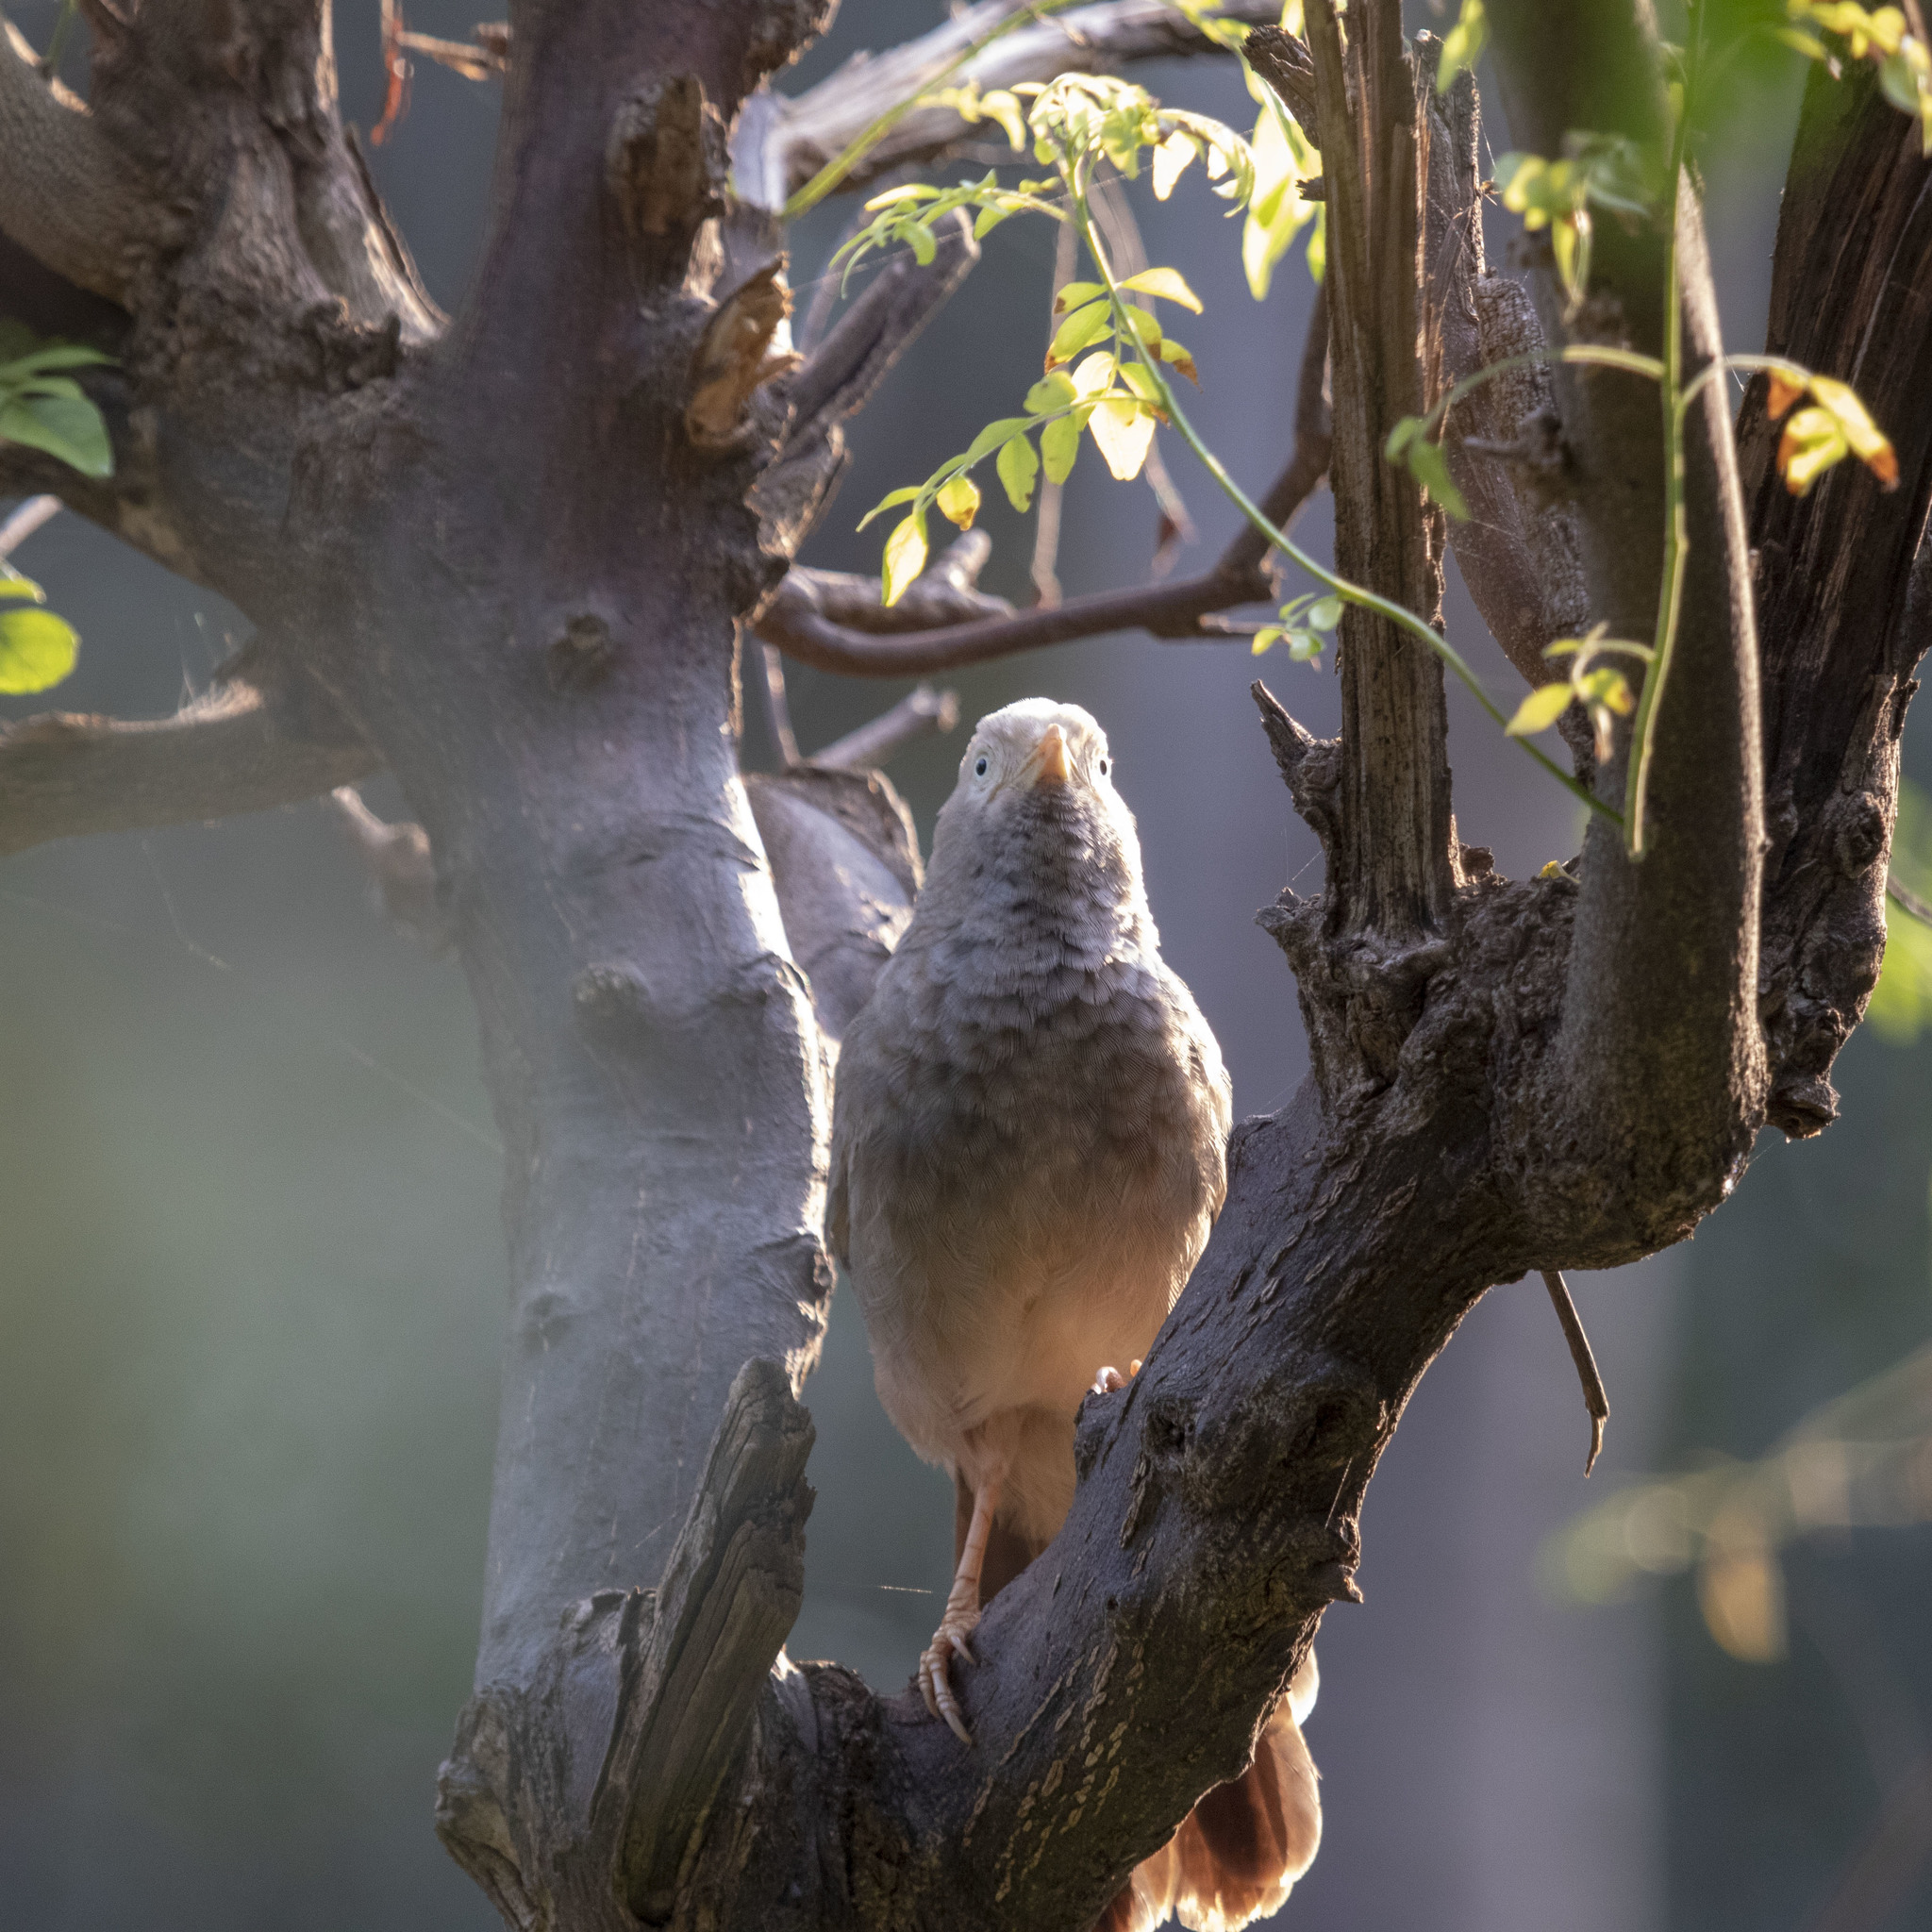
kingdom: Animalia
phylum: Chordata
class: Aves
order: Passeriformes
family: Leiothrichidae
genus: Turdoides
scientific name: Turdoides affinis
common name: Yellow-billed babbler
